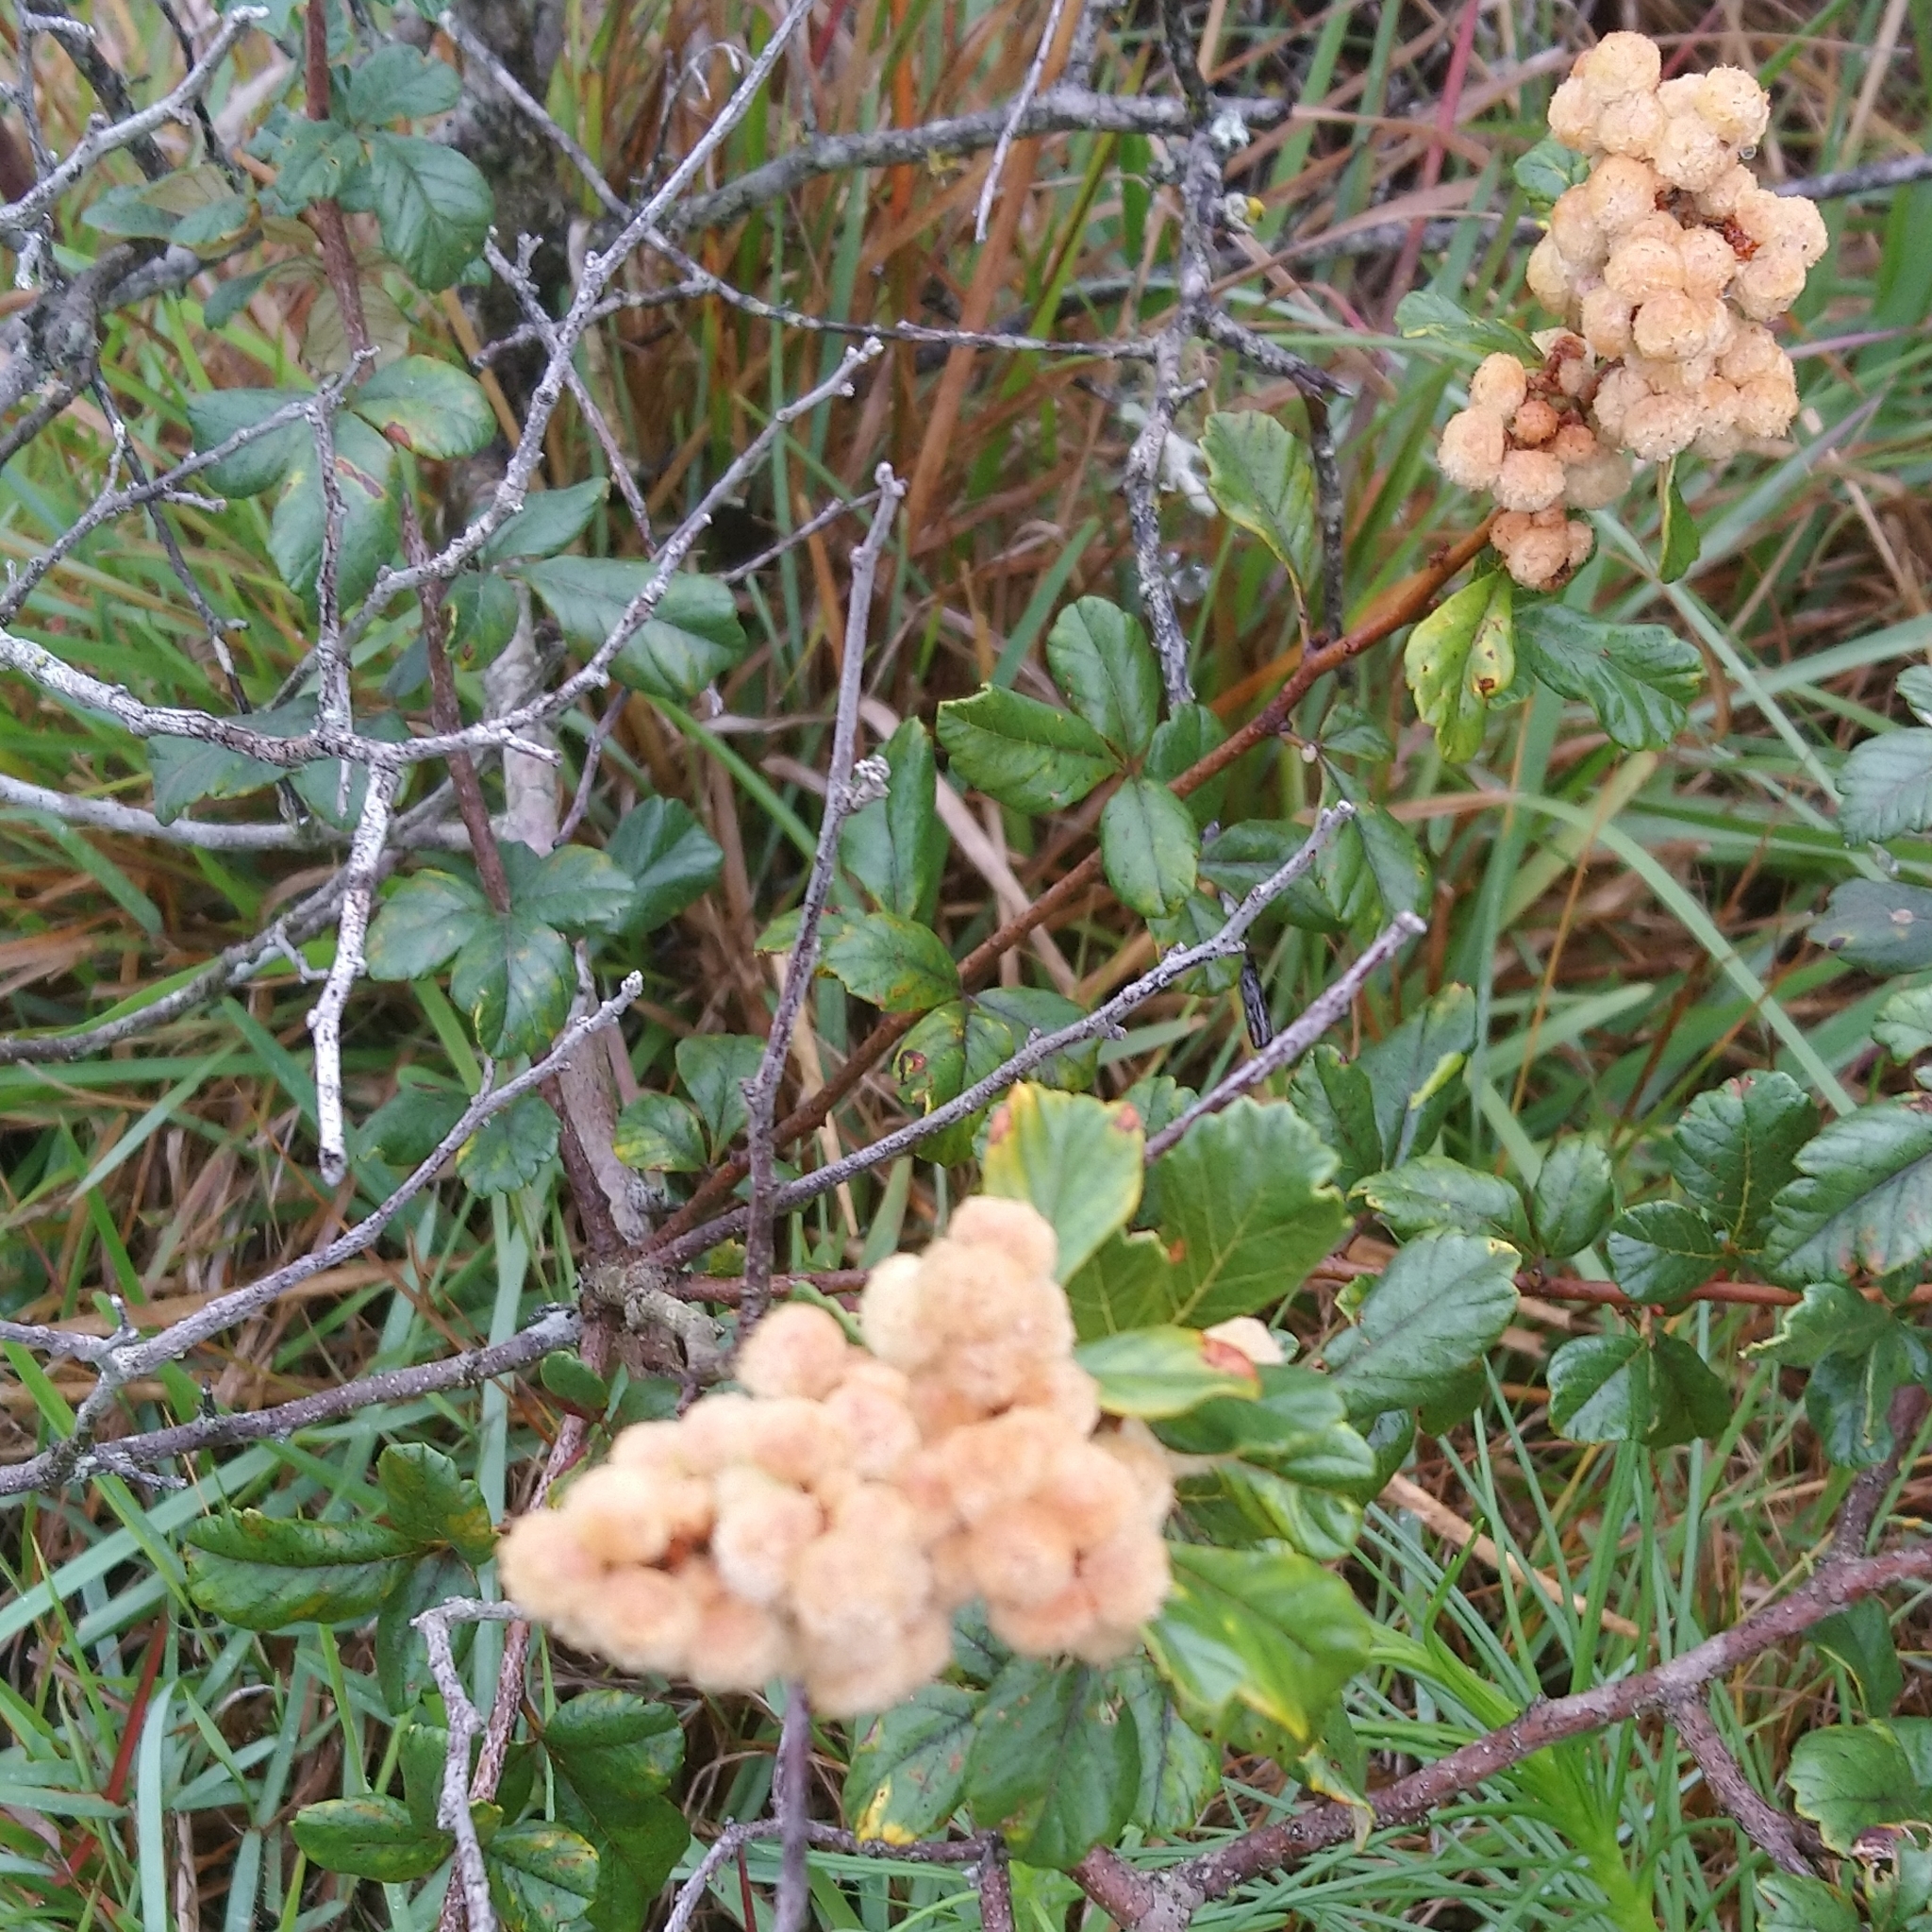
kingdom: Plantae
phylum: Tracheophyta
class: Magnoliopsida
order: Sapindales
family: Anacardiaceae
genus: Searsia
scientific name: Searsia incisa
